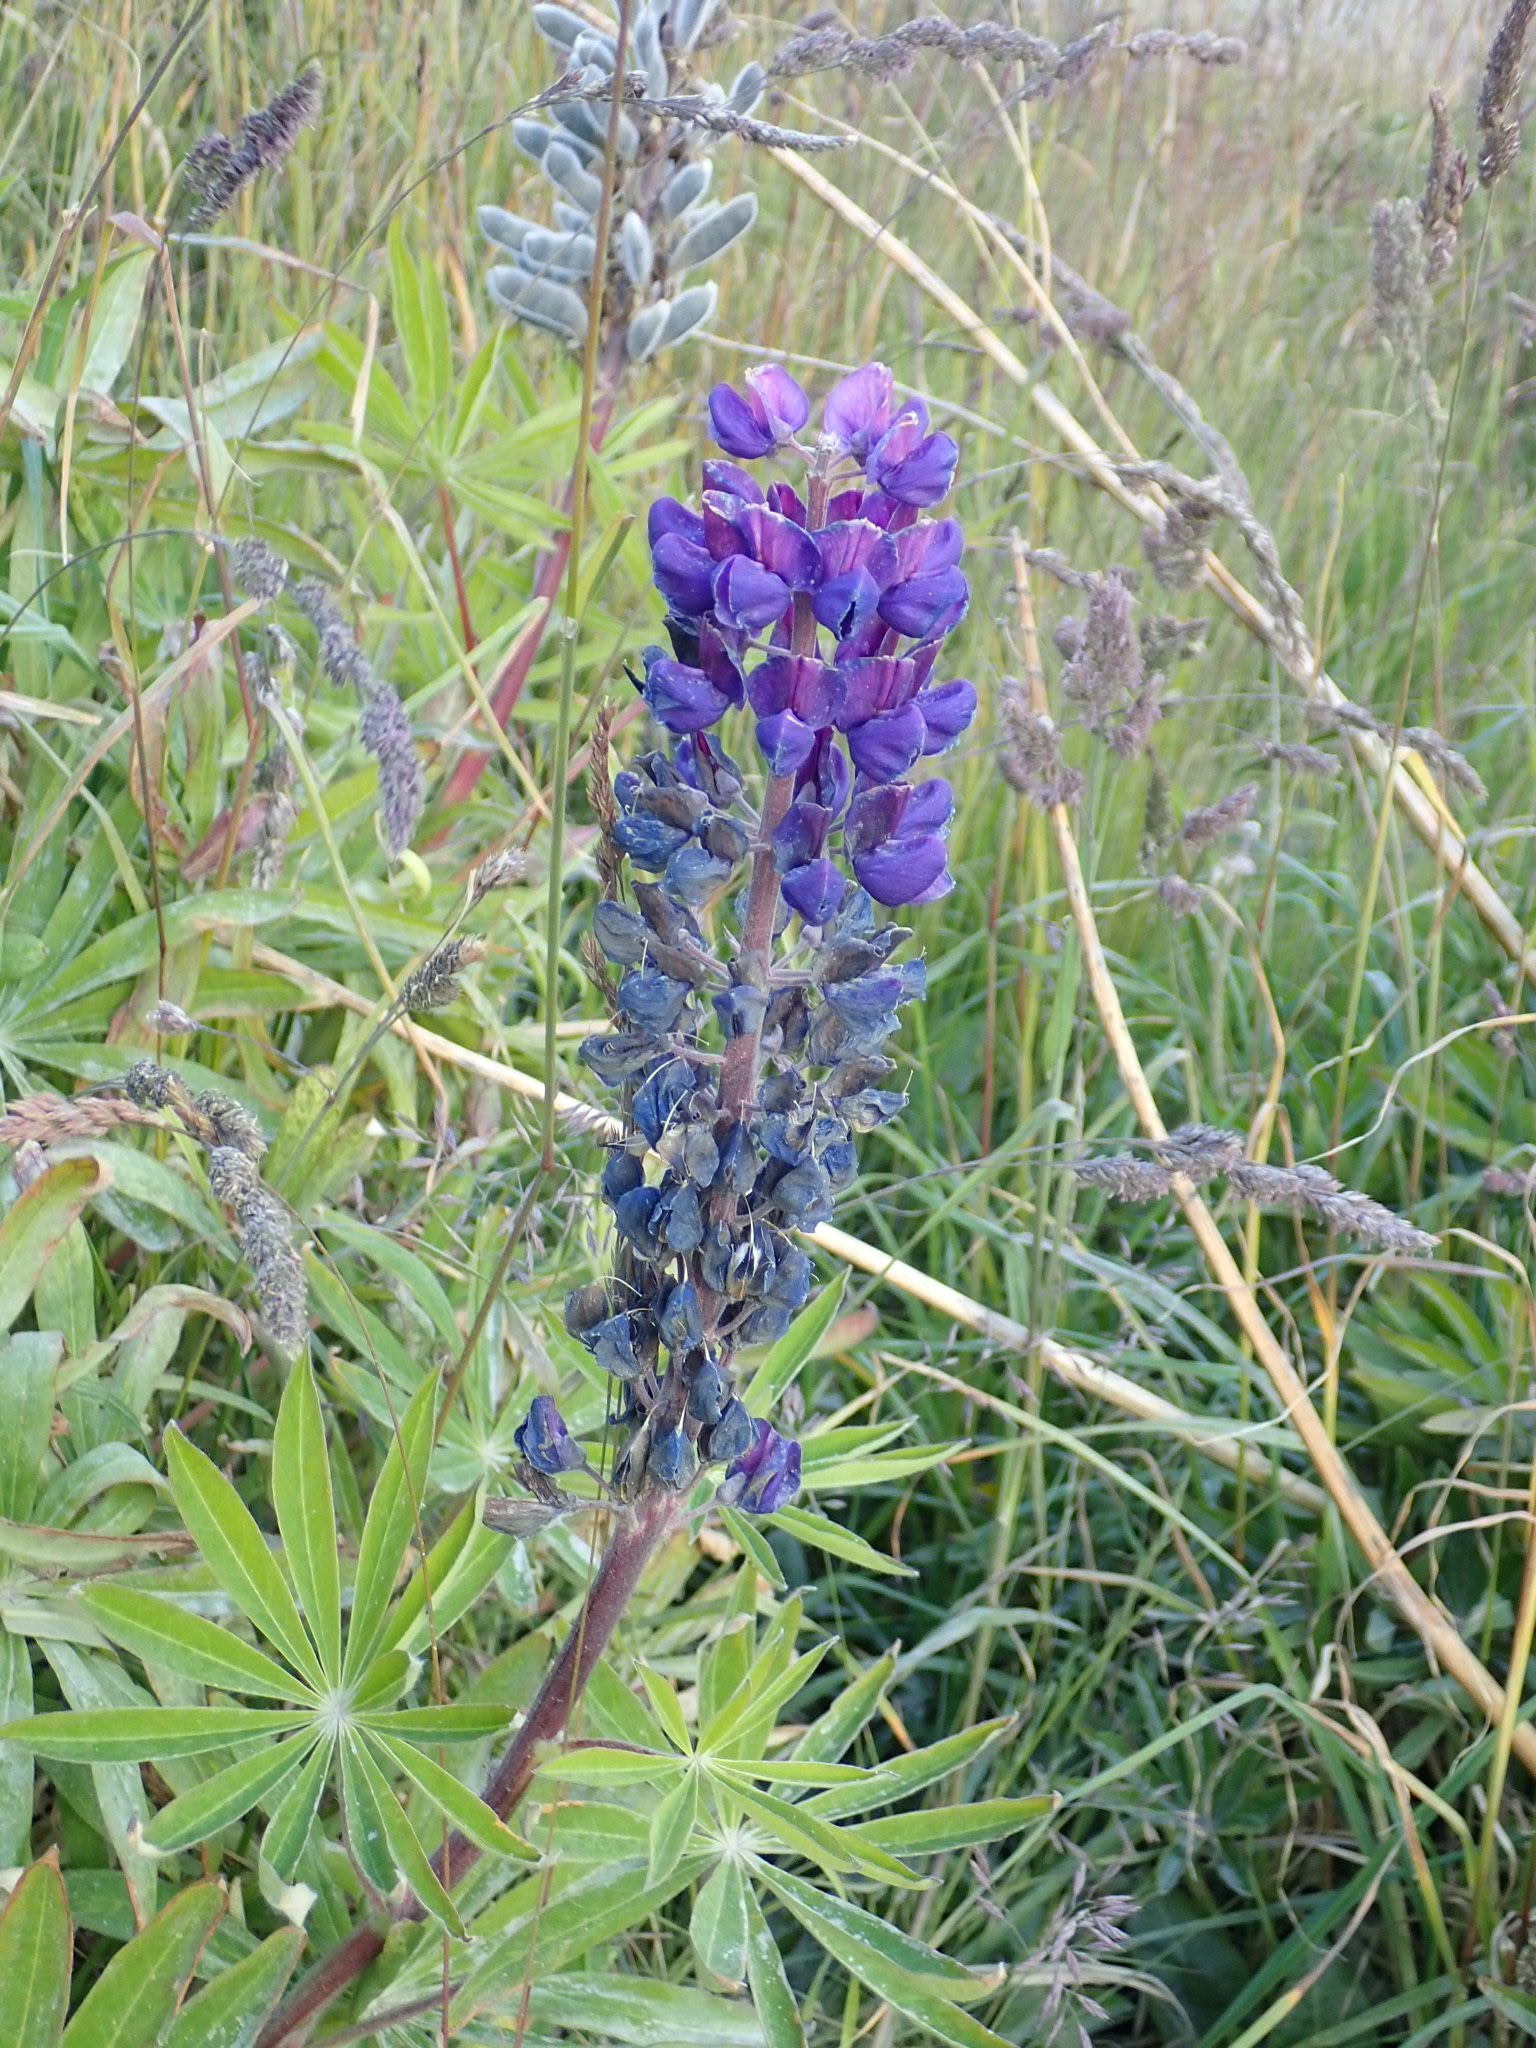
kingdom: Plantae
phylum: Tracheophyta
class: Magnoliopsida
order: Fabales
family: Fabaceae
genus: Lupinus
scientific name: Lupinus polyphyllus
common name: Garden lupin
